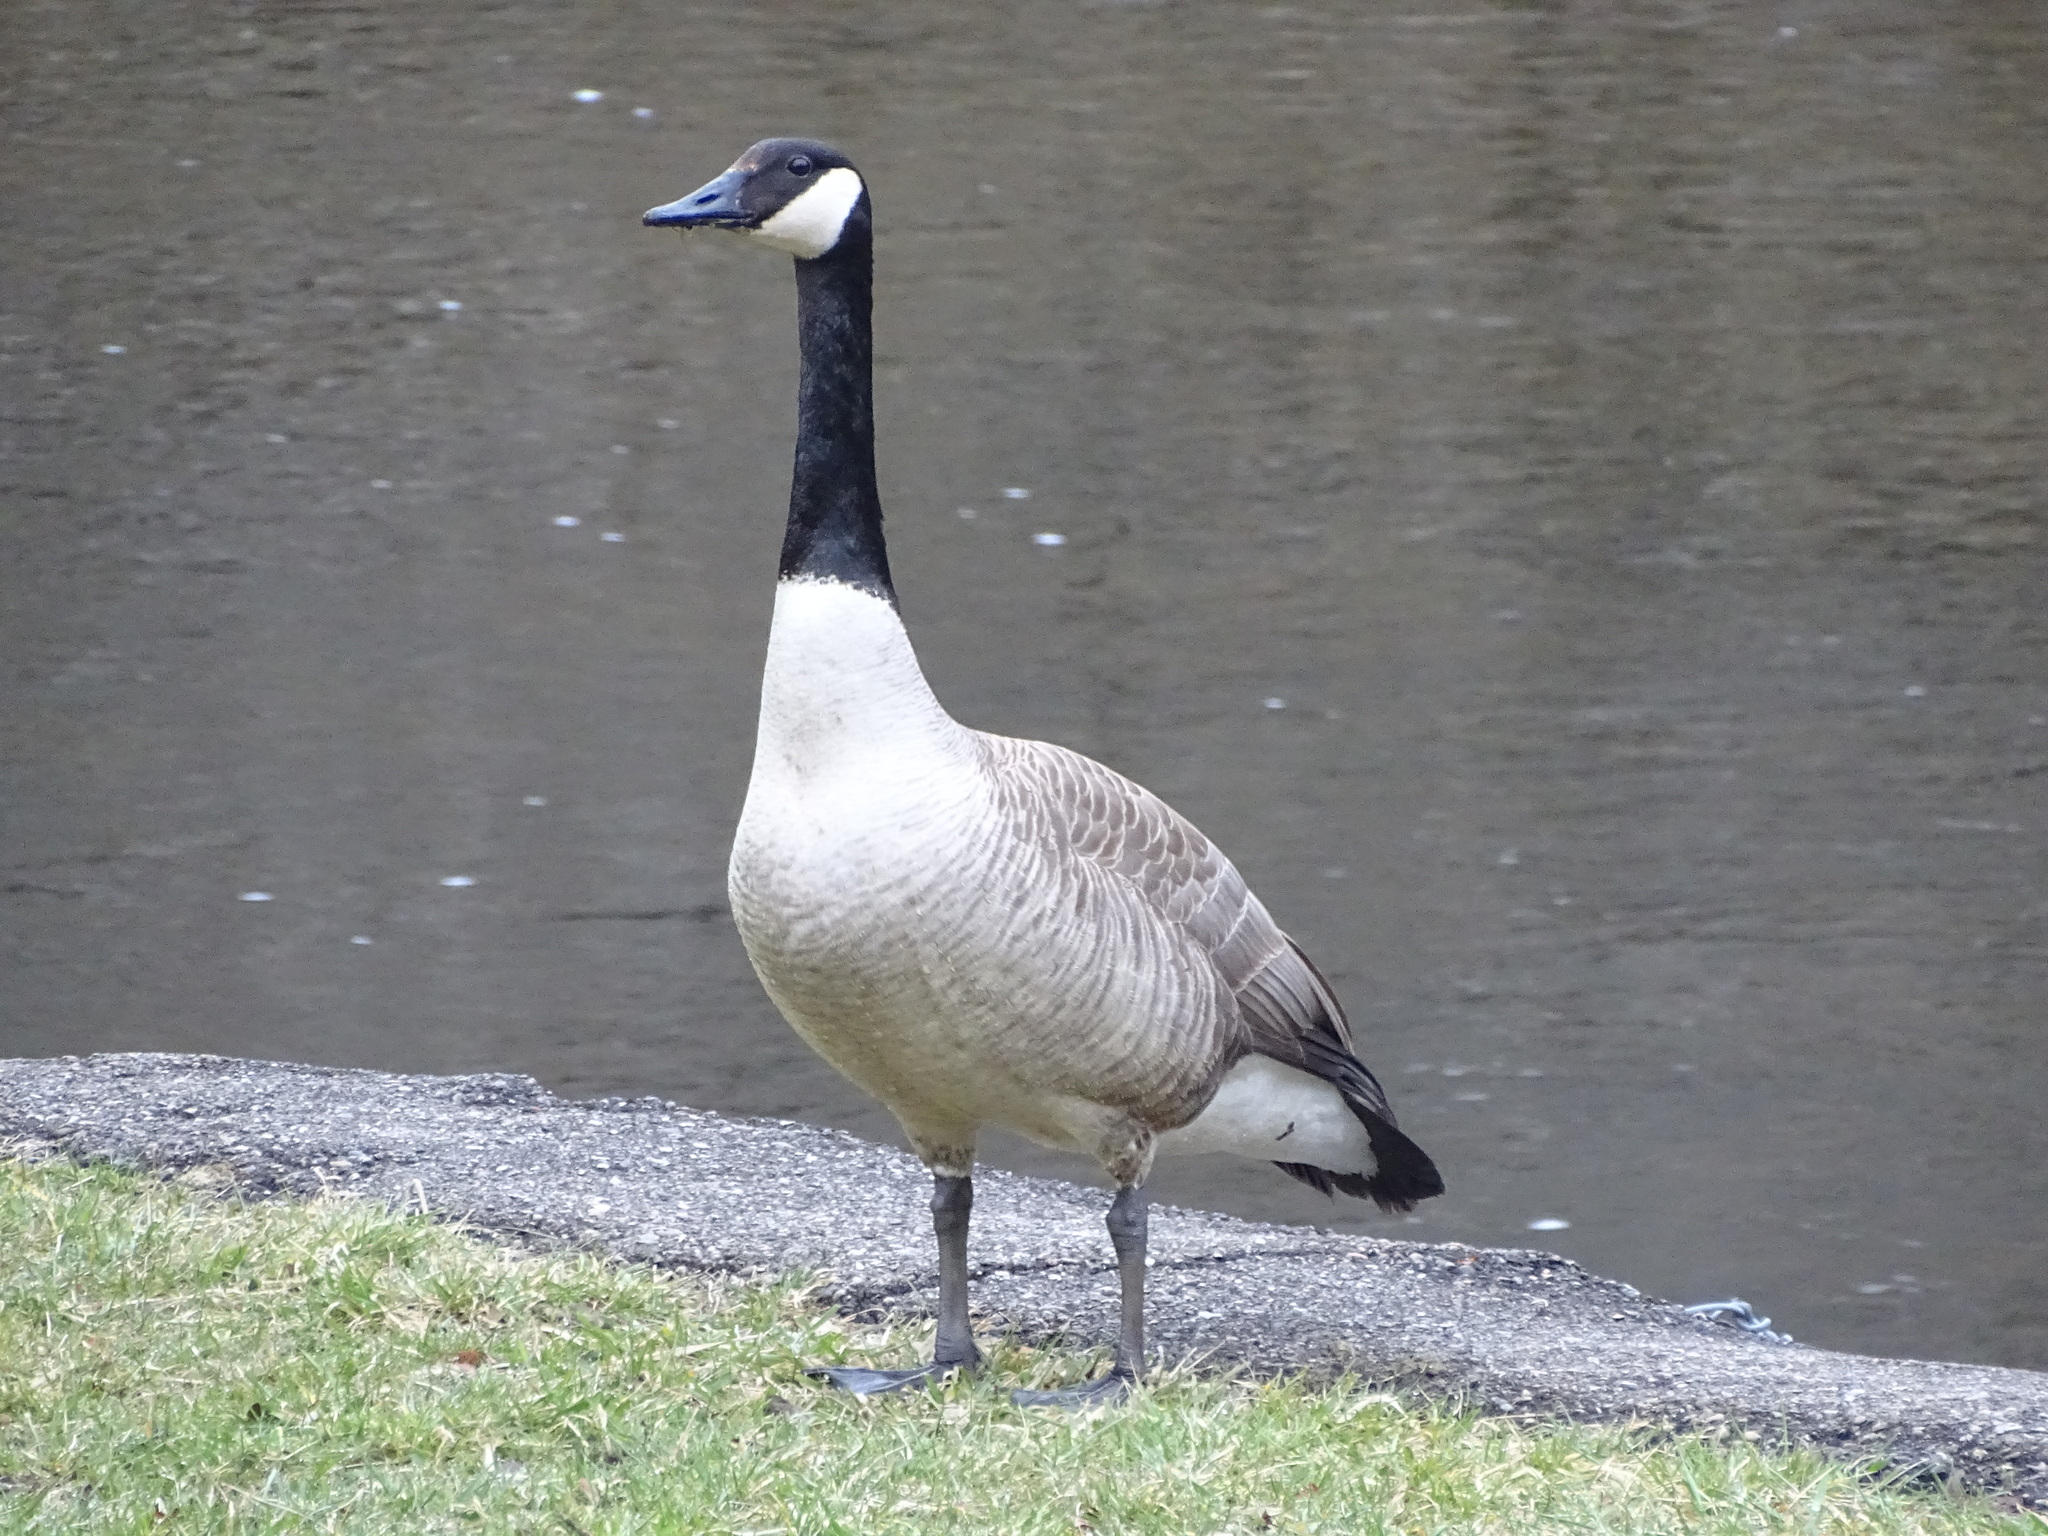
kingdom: Animalia
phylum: Chordata
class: Aves
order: Anseriformes
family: Anatidae
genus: Branta
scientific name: Branta canadensis
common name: Canada goose
